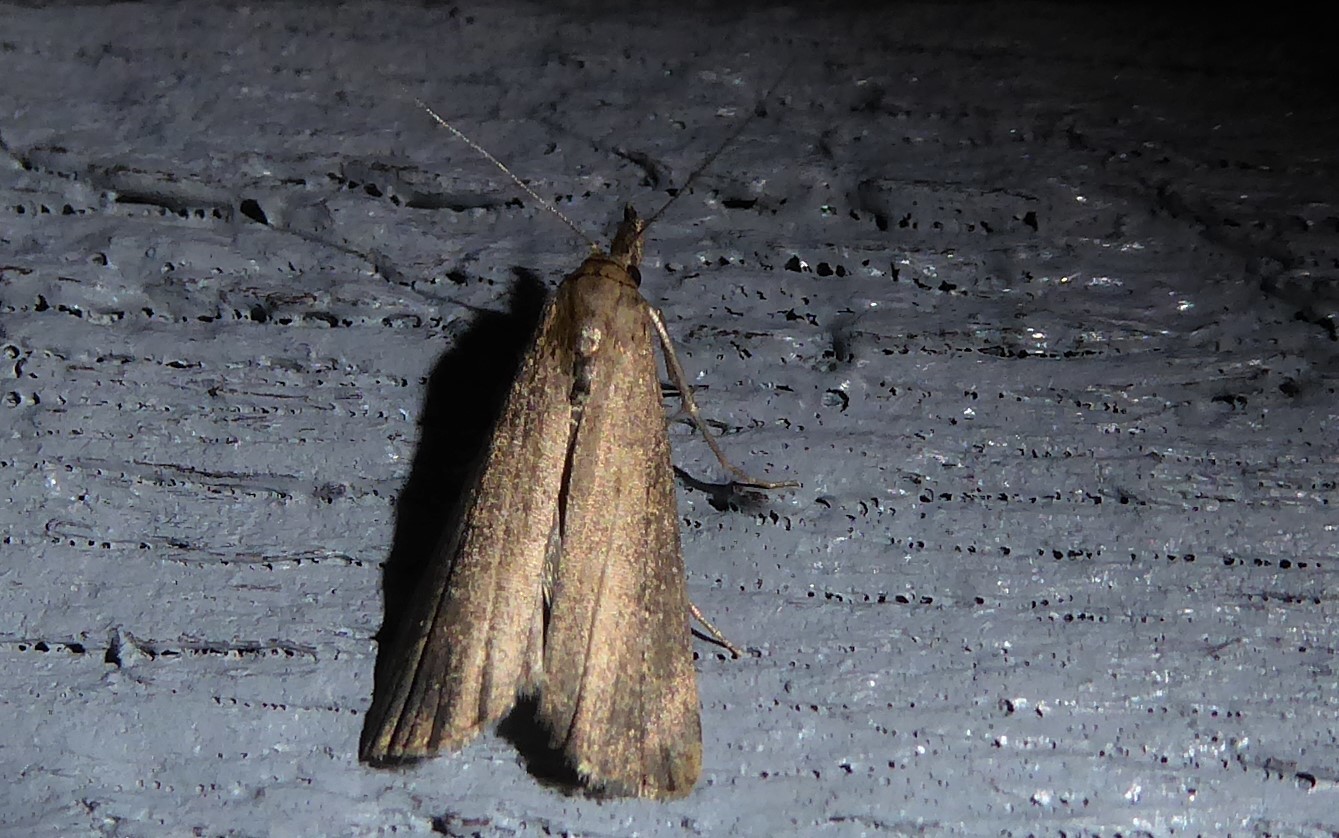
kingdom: Animalia
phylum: Arthropoda
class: Insecta
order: Lepidoptera
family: Erebidae
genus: Schrankia
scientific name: Schrankia costaestrigalis
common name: Pinion-streaked snout
